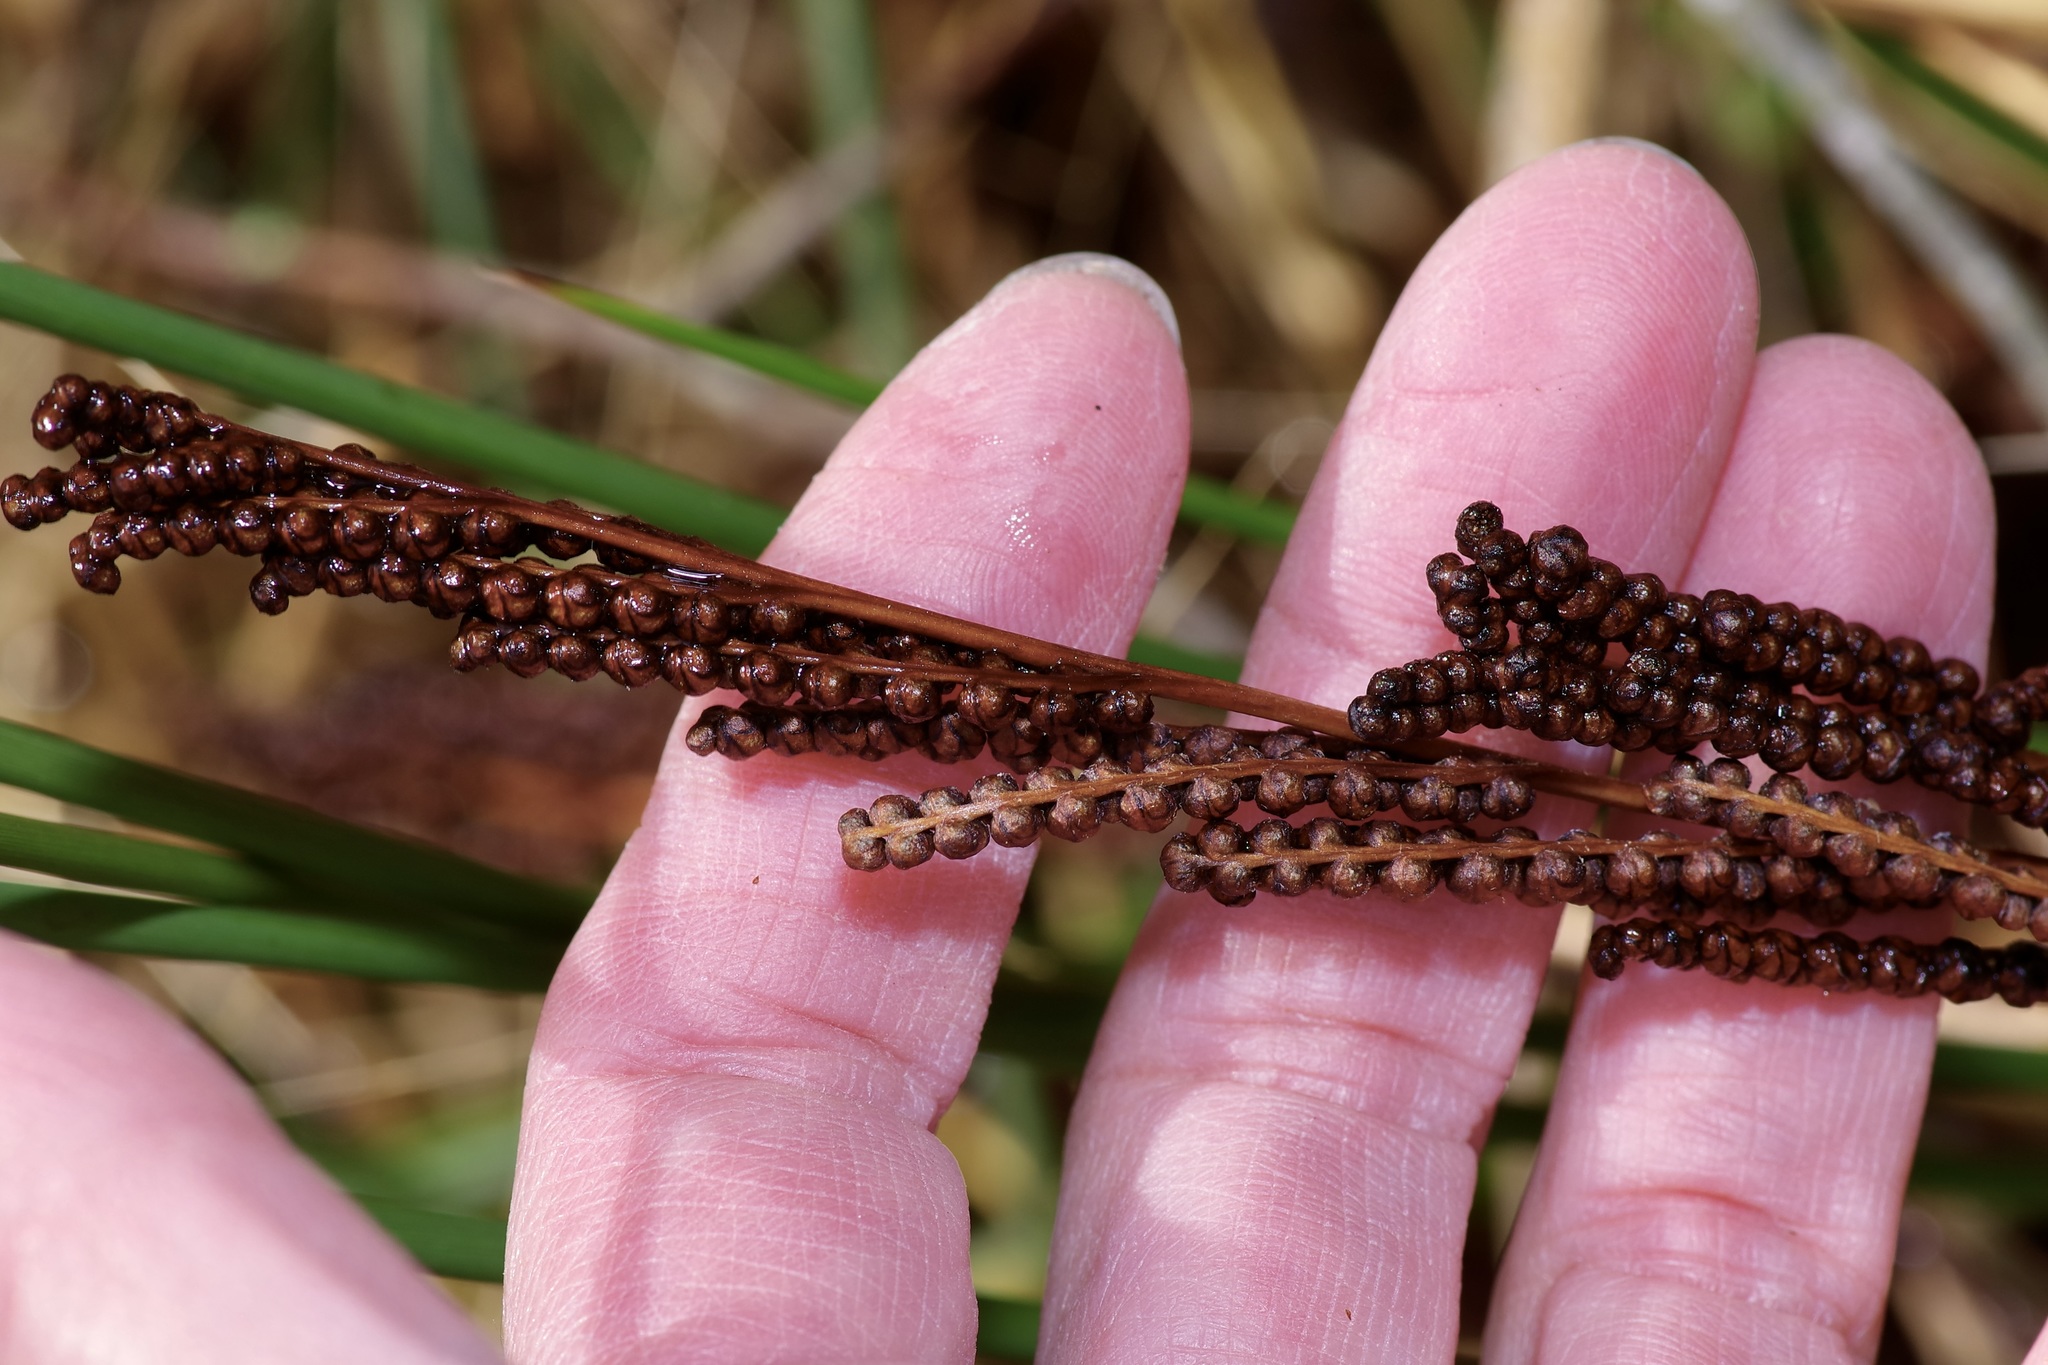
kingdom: Plantae
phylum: Tracheophyta
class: Polypodiopsida
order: Polypodiales
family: Onocleaceae
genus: Onoclea
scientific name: Onoclea sensibilis
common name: Sensitive fern
